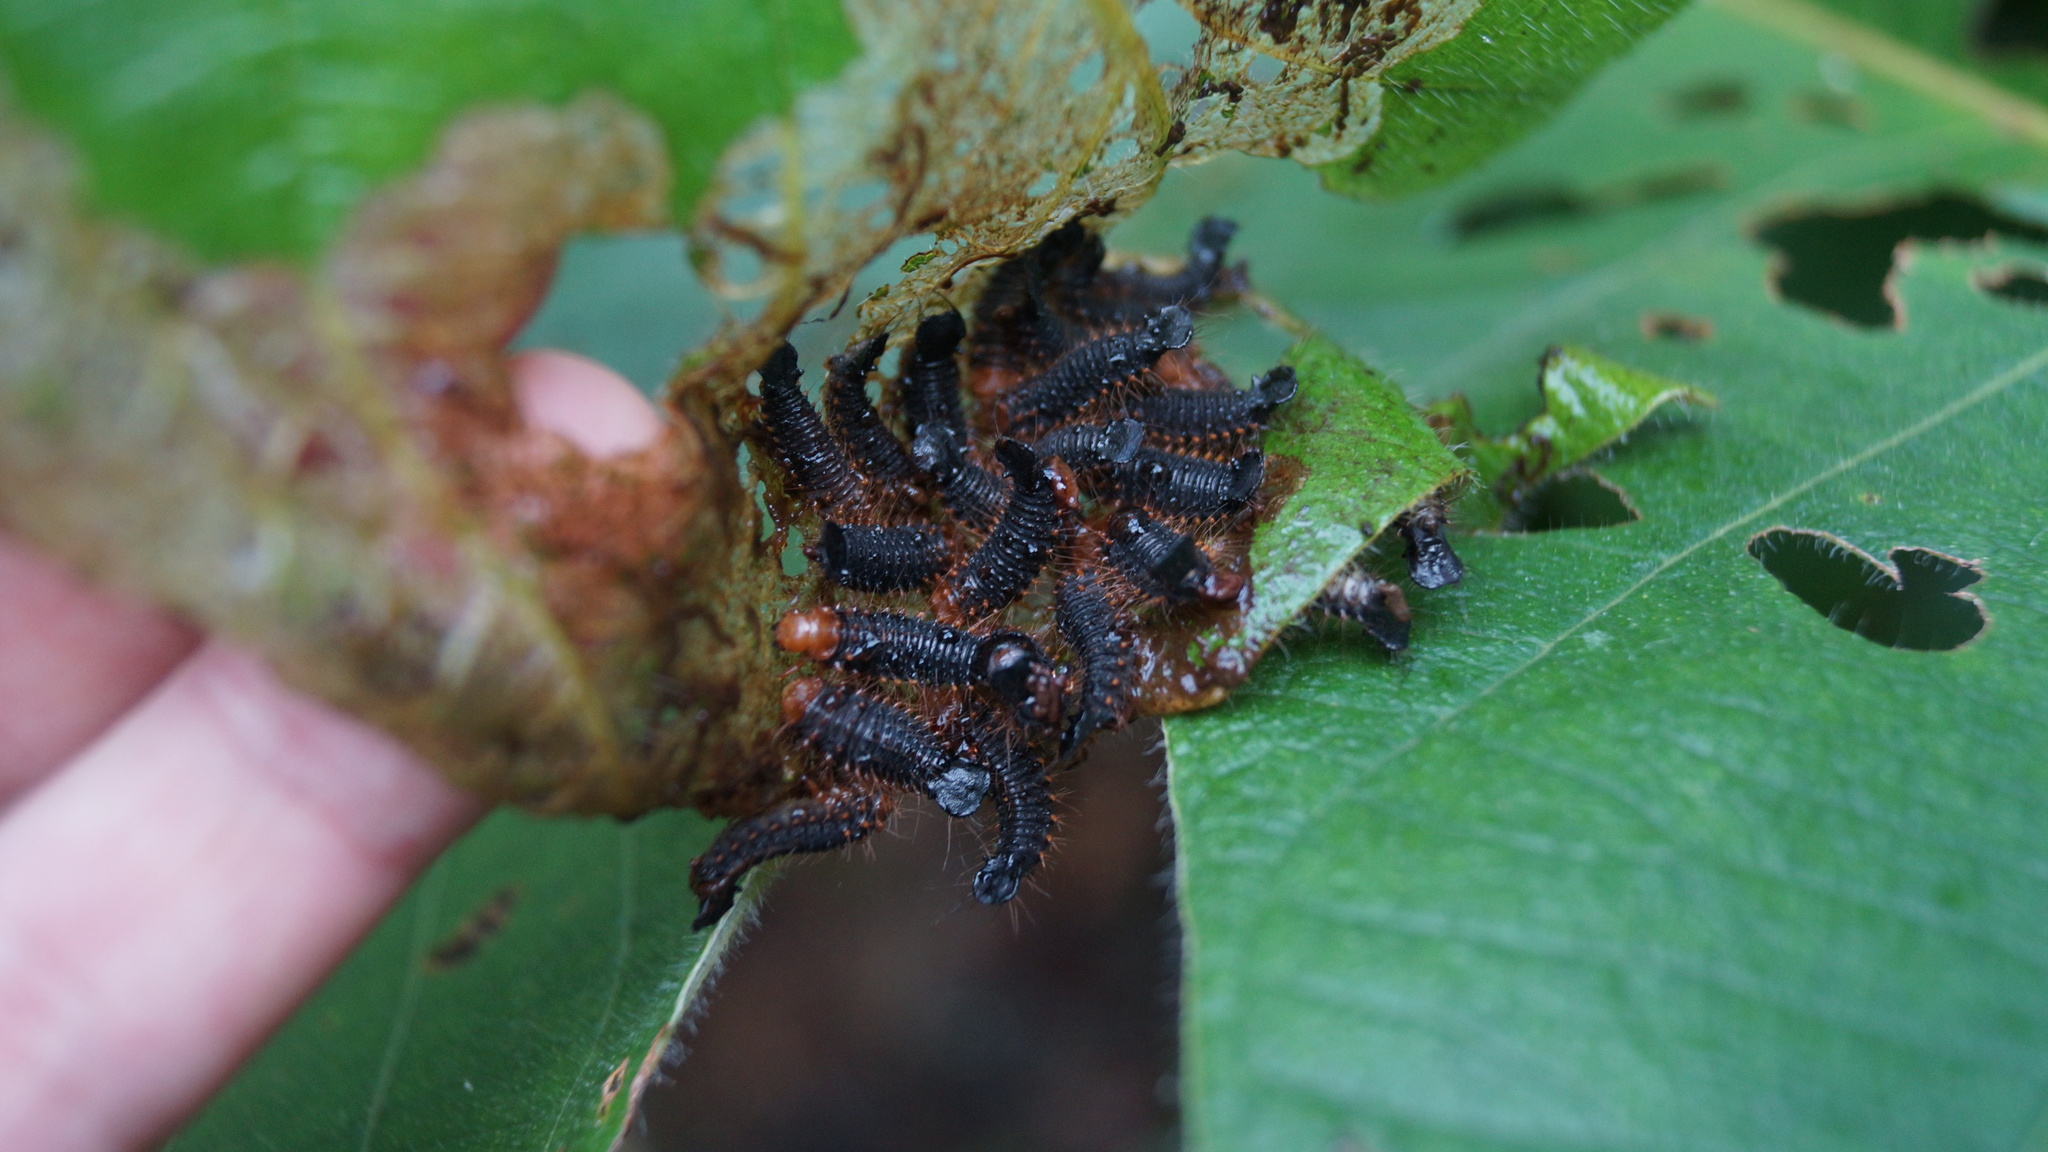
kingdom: Animalia
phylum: Arthropoda
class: Insecta
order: Coleoptera
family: Chrysomelidae
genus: Coelomera
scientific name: Coelomera cajennensis
